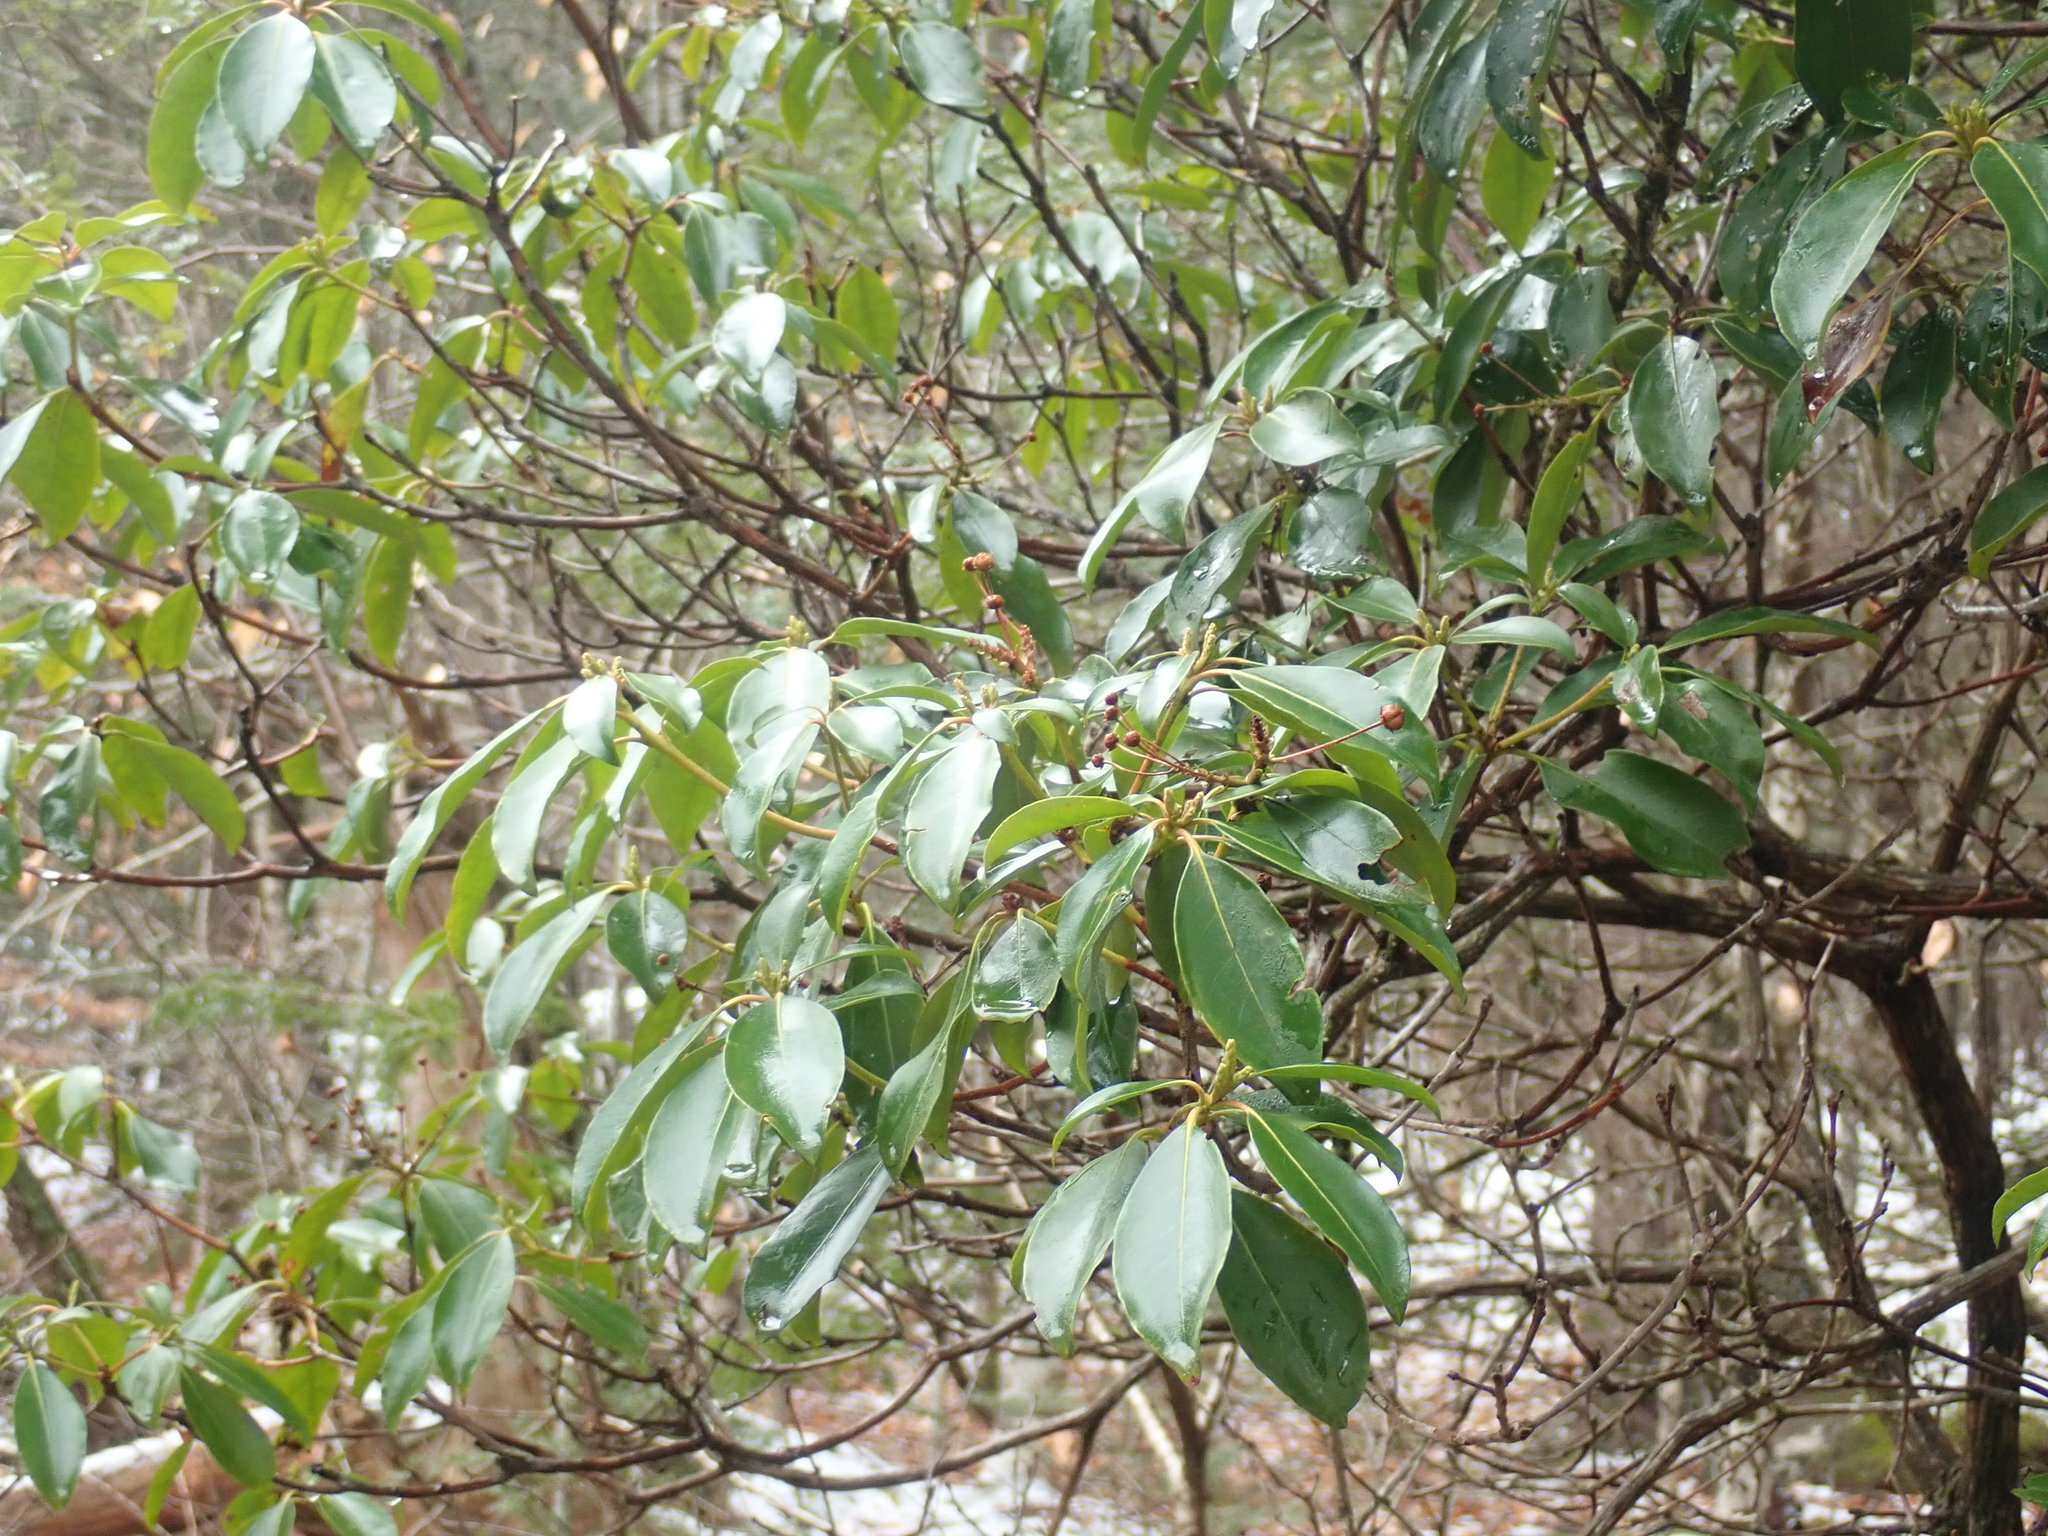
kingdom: Plantae
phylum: Tracheophyta
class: Magnoliopsida
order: Ericales
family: Ericaceae
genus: Kalmia
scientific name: Kalmia latifolia
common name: Mountain-laurel
